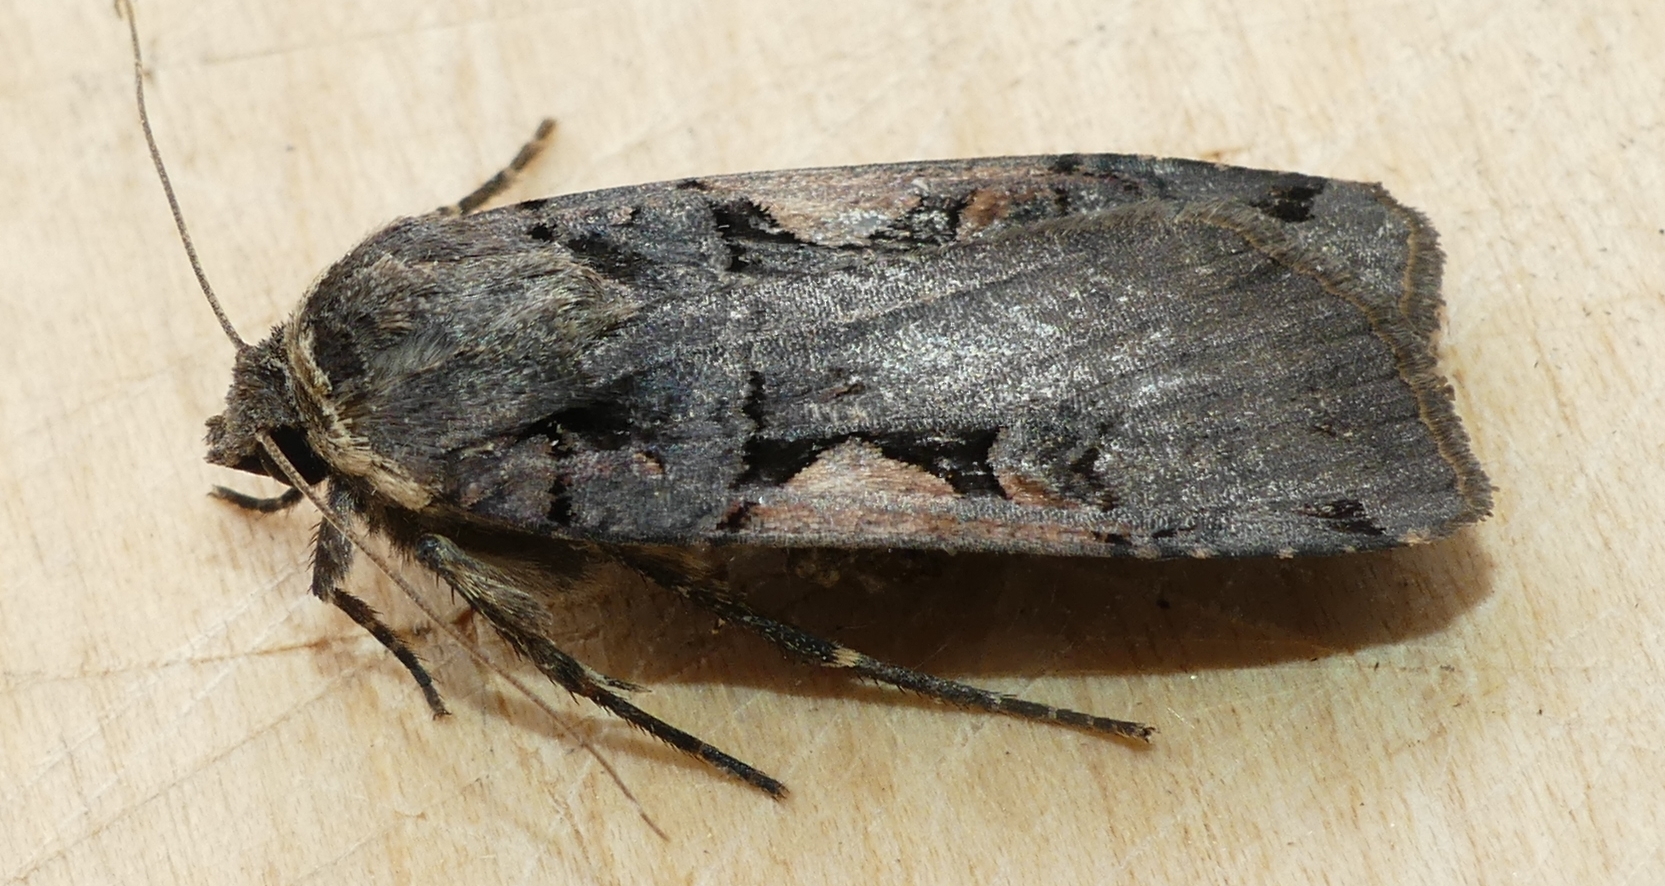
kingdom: Animalia
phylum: Arthropoda
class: Insecta
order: Lepidoptera
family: Noctuidae
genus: Xestia
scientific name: Xestia
